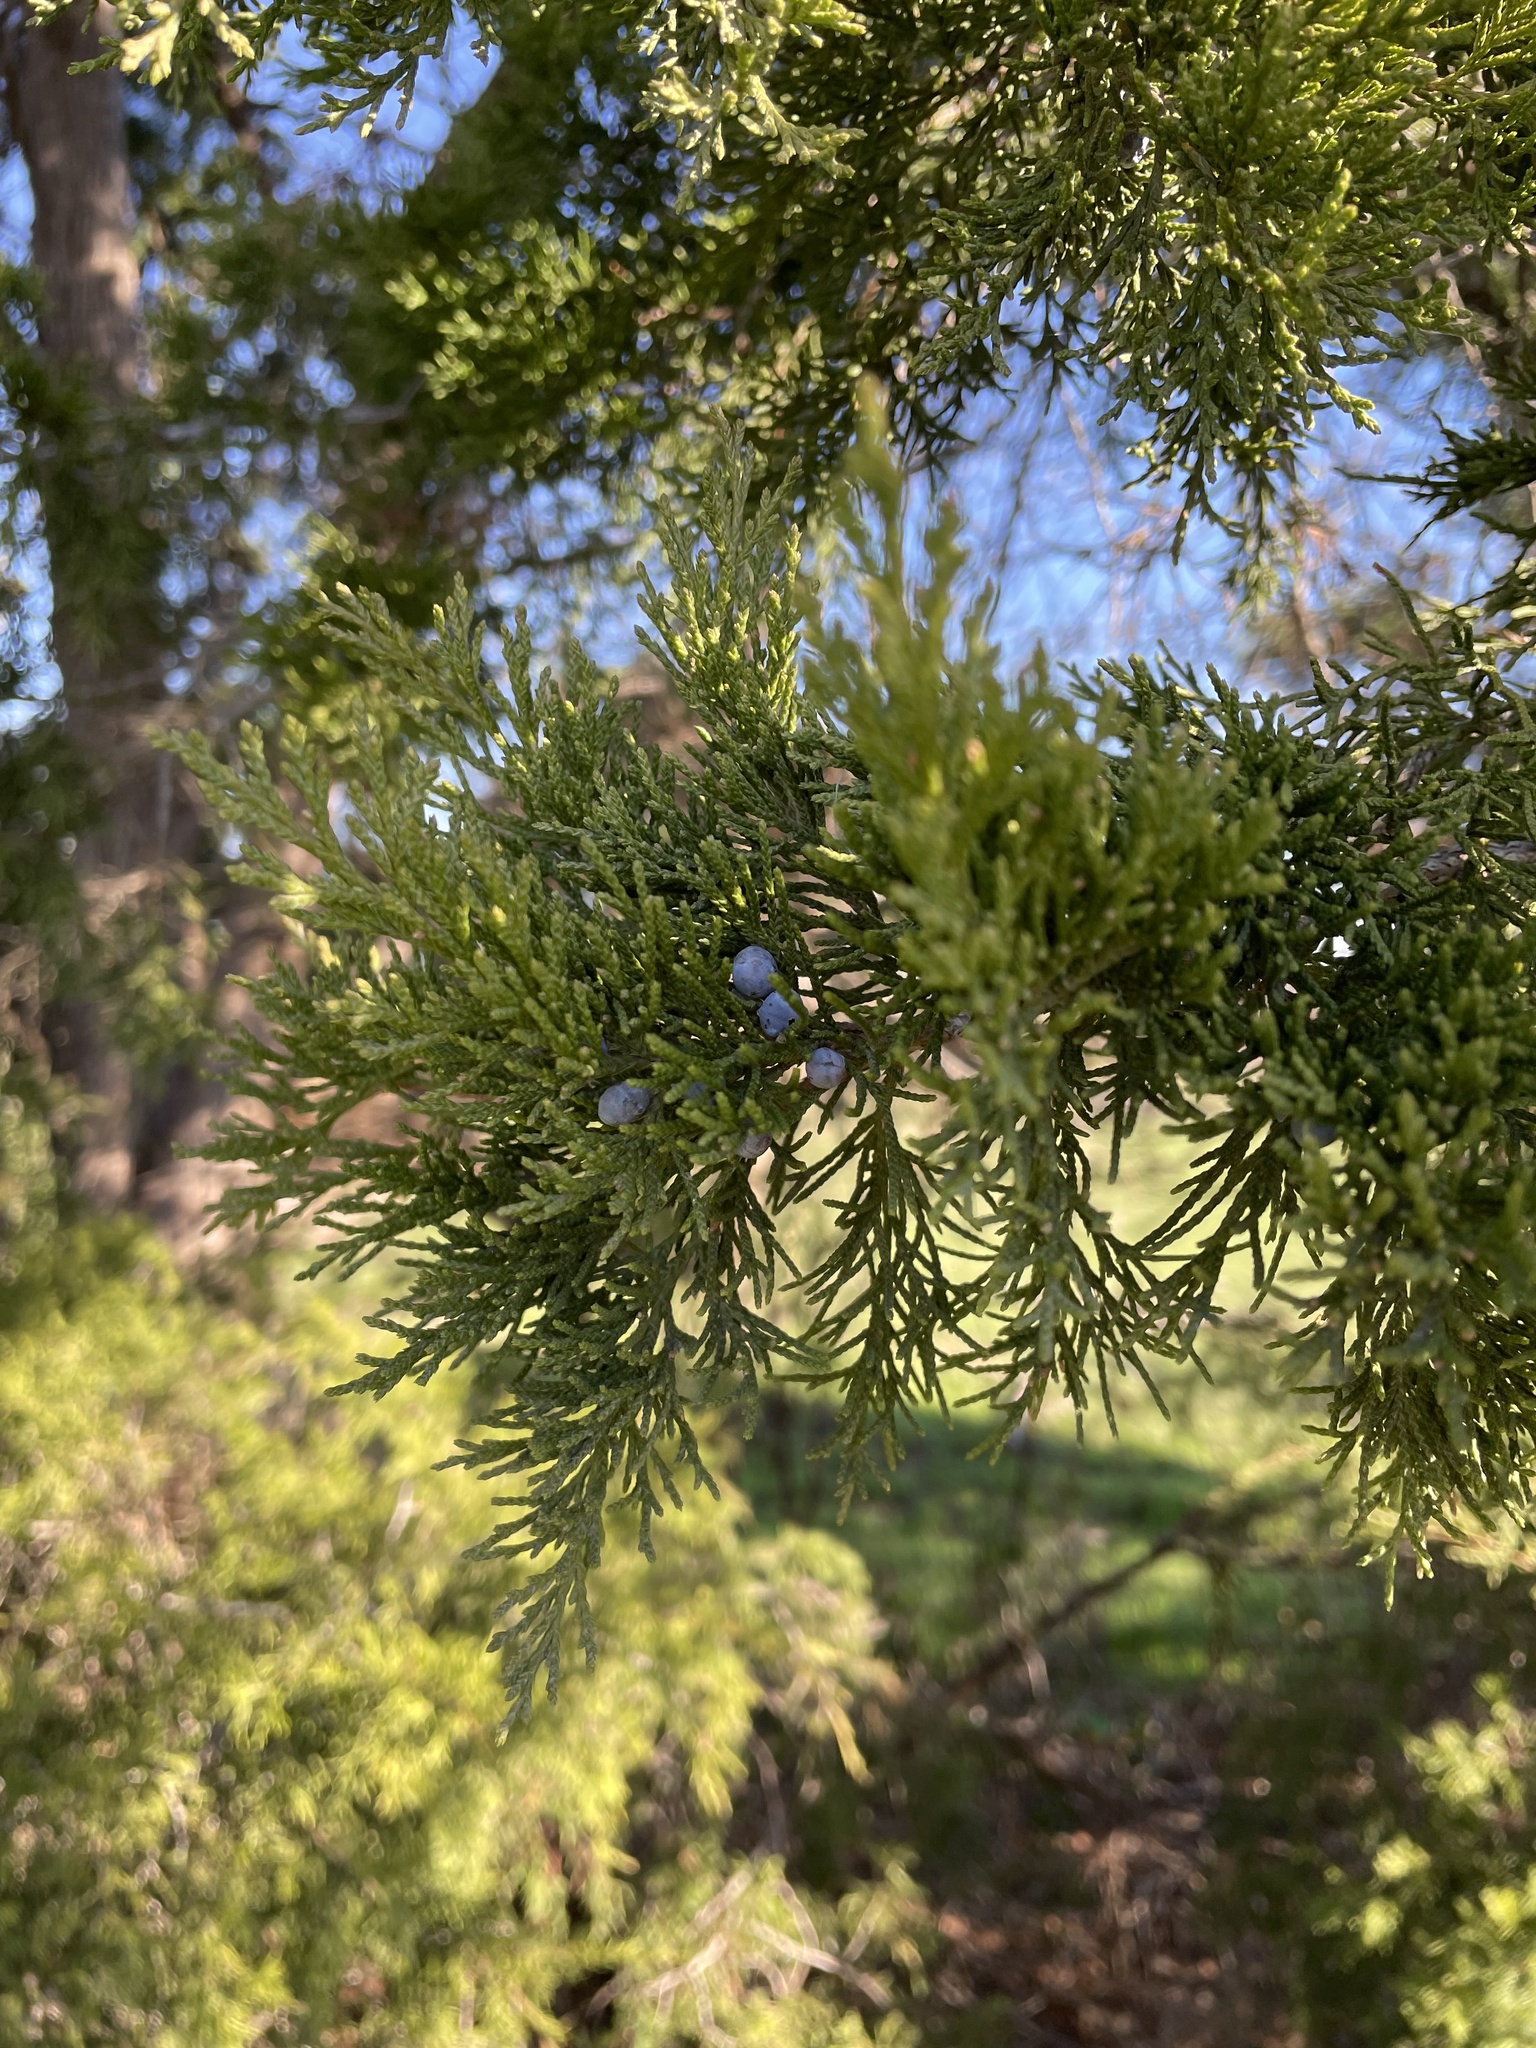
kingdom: Plantae
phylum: Tracheophyta
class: Pinopsida
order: Pinales
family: Cupressaceae
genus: Juniperus
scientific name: Juniperus virginiana
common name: Red juniper
